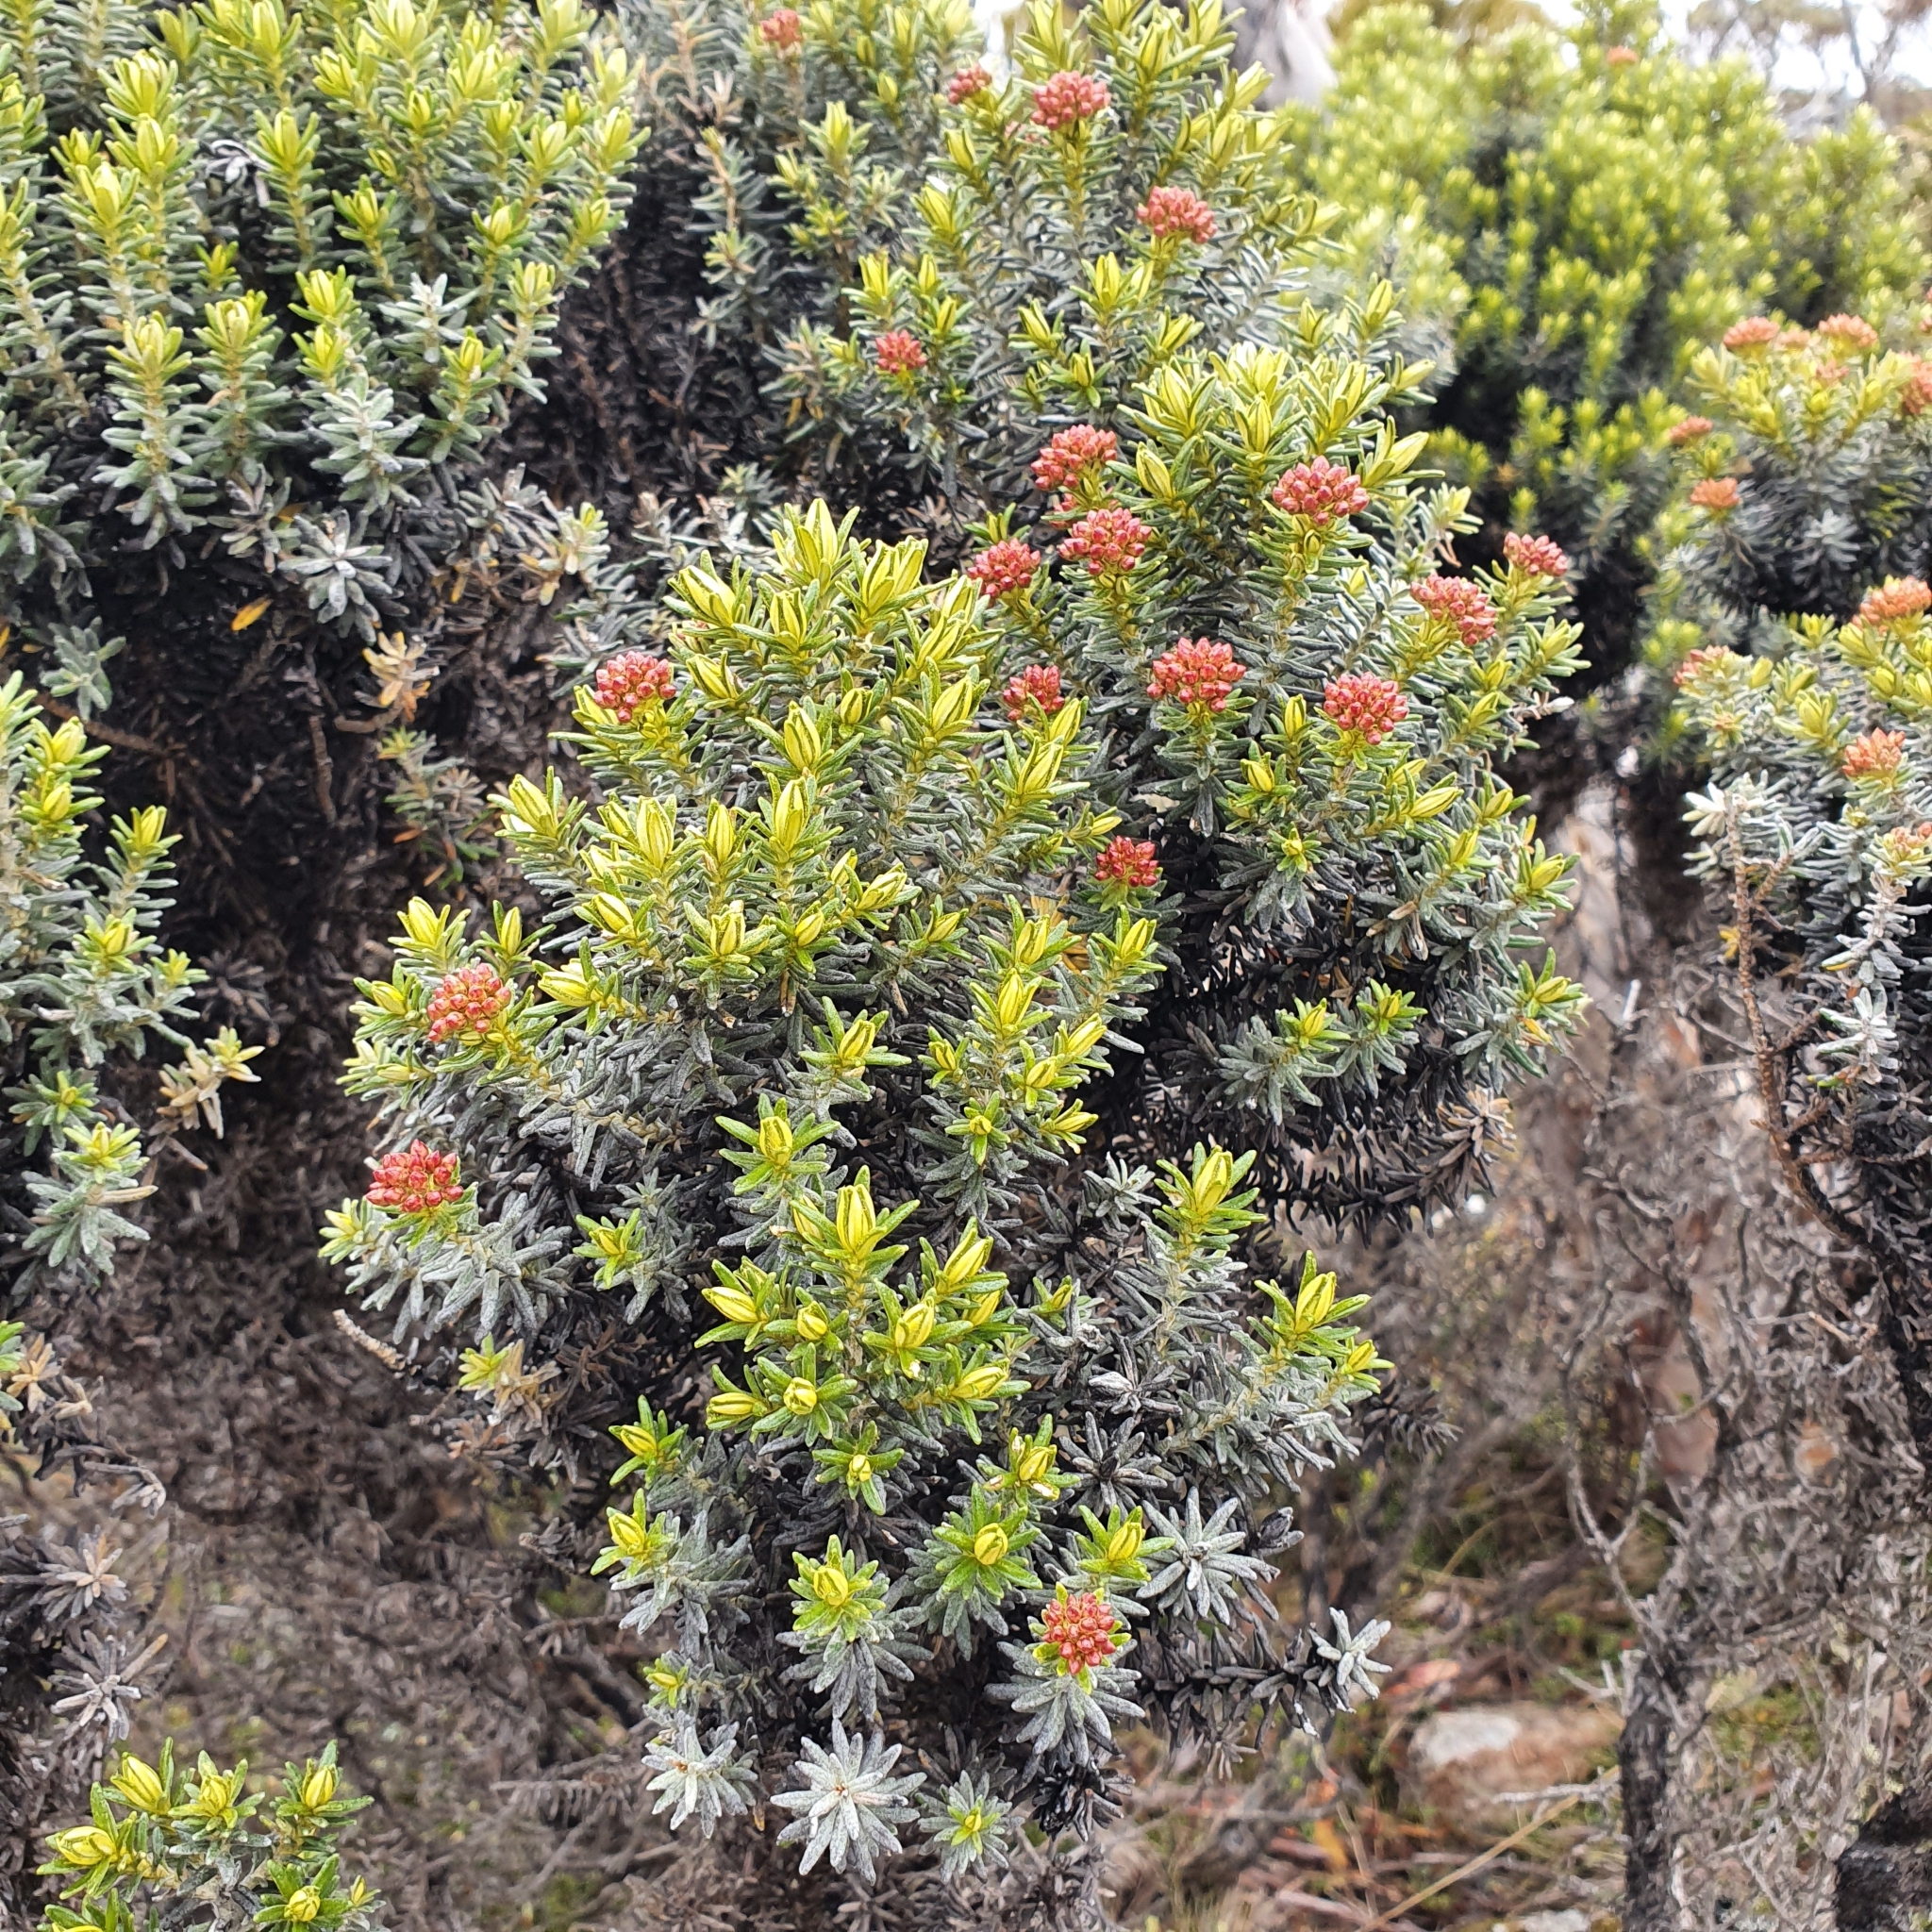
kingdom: Plantae
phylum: Tracheophyta
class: Magnoliopsida
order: Asterales
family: Asteraceae
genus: Ozothamnus
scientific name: Ozothamnus ledifolius
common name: Kerosene-weed
